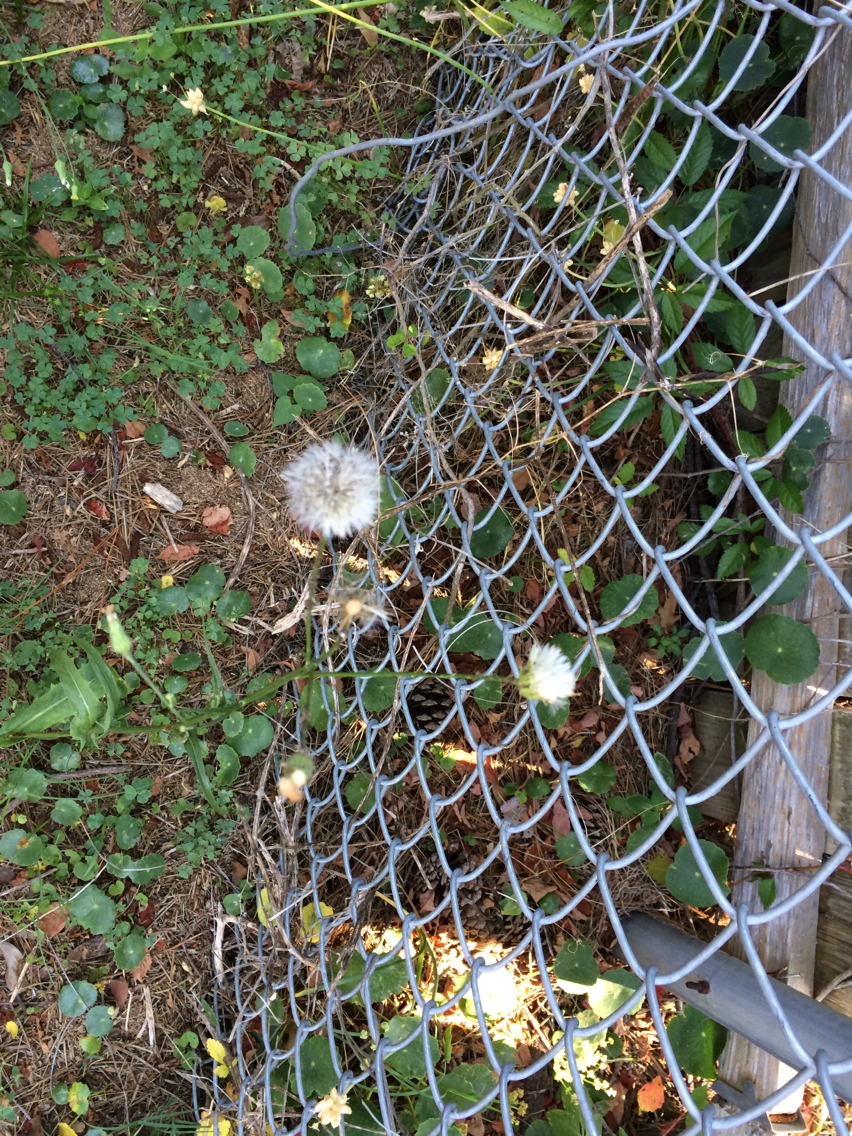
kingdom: Plantae
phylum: Tracheophyta
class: Magnoliopsida
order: Asterales
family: Asteraceae
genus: Hypochaeris
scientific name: Hypochaeris chillensis
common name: Brazilian cat's ear
